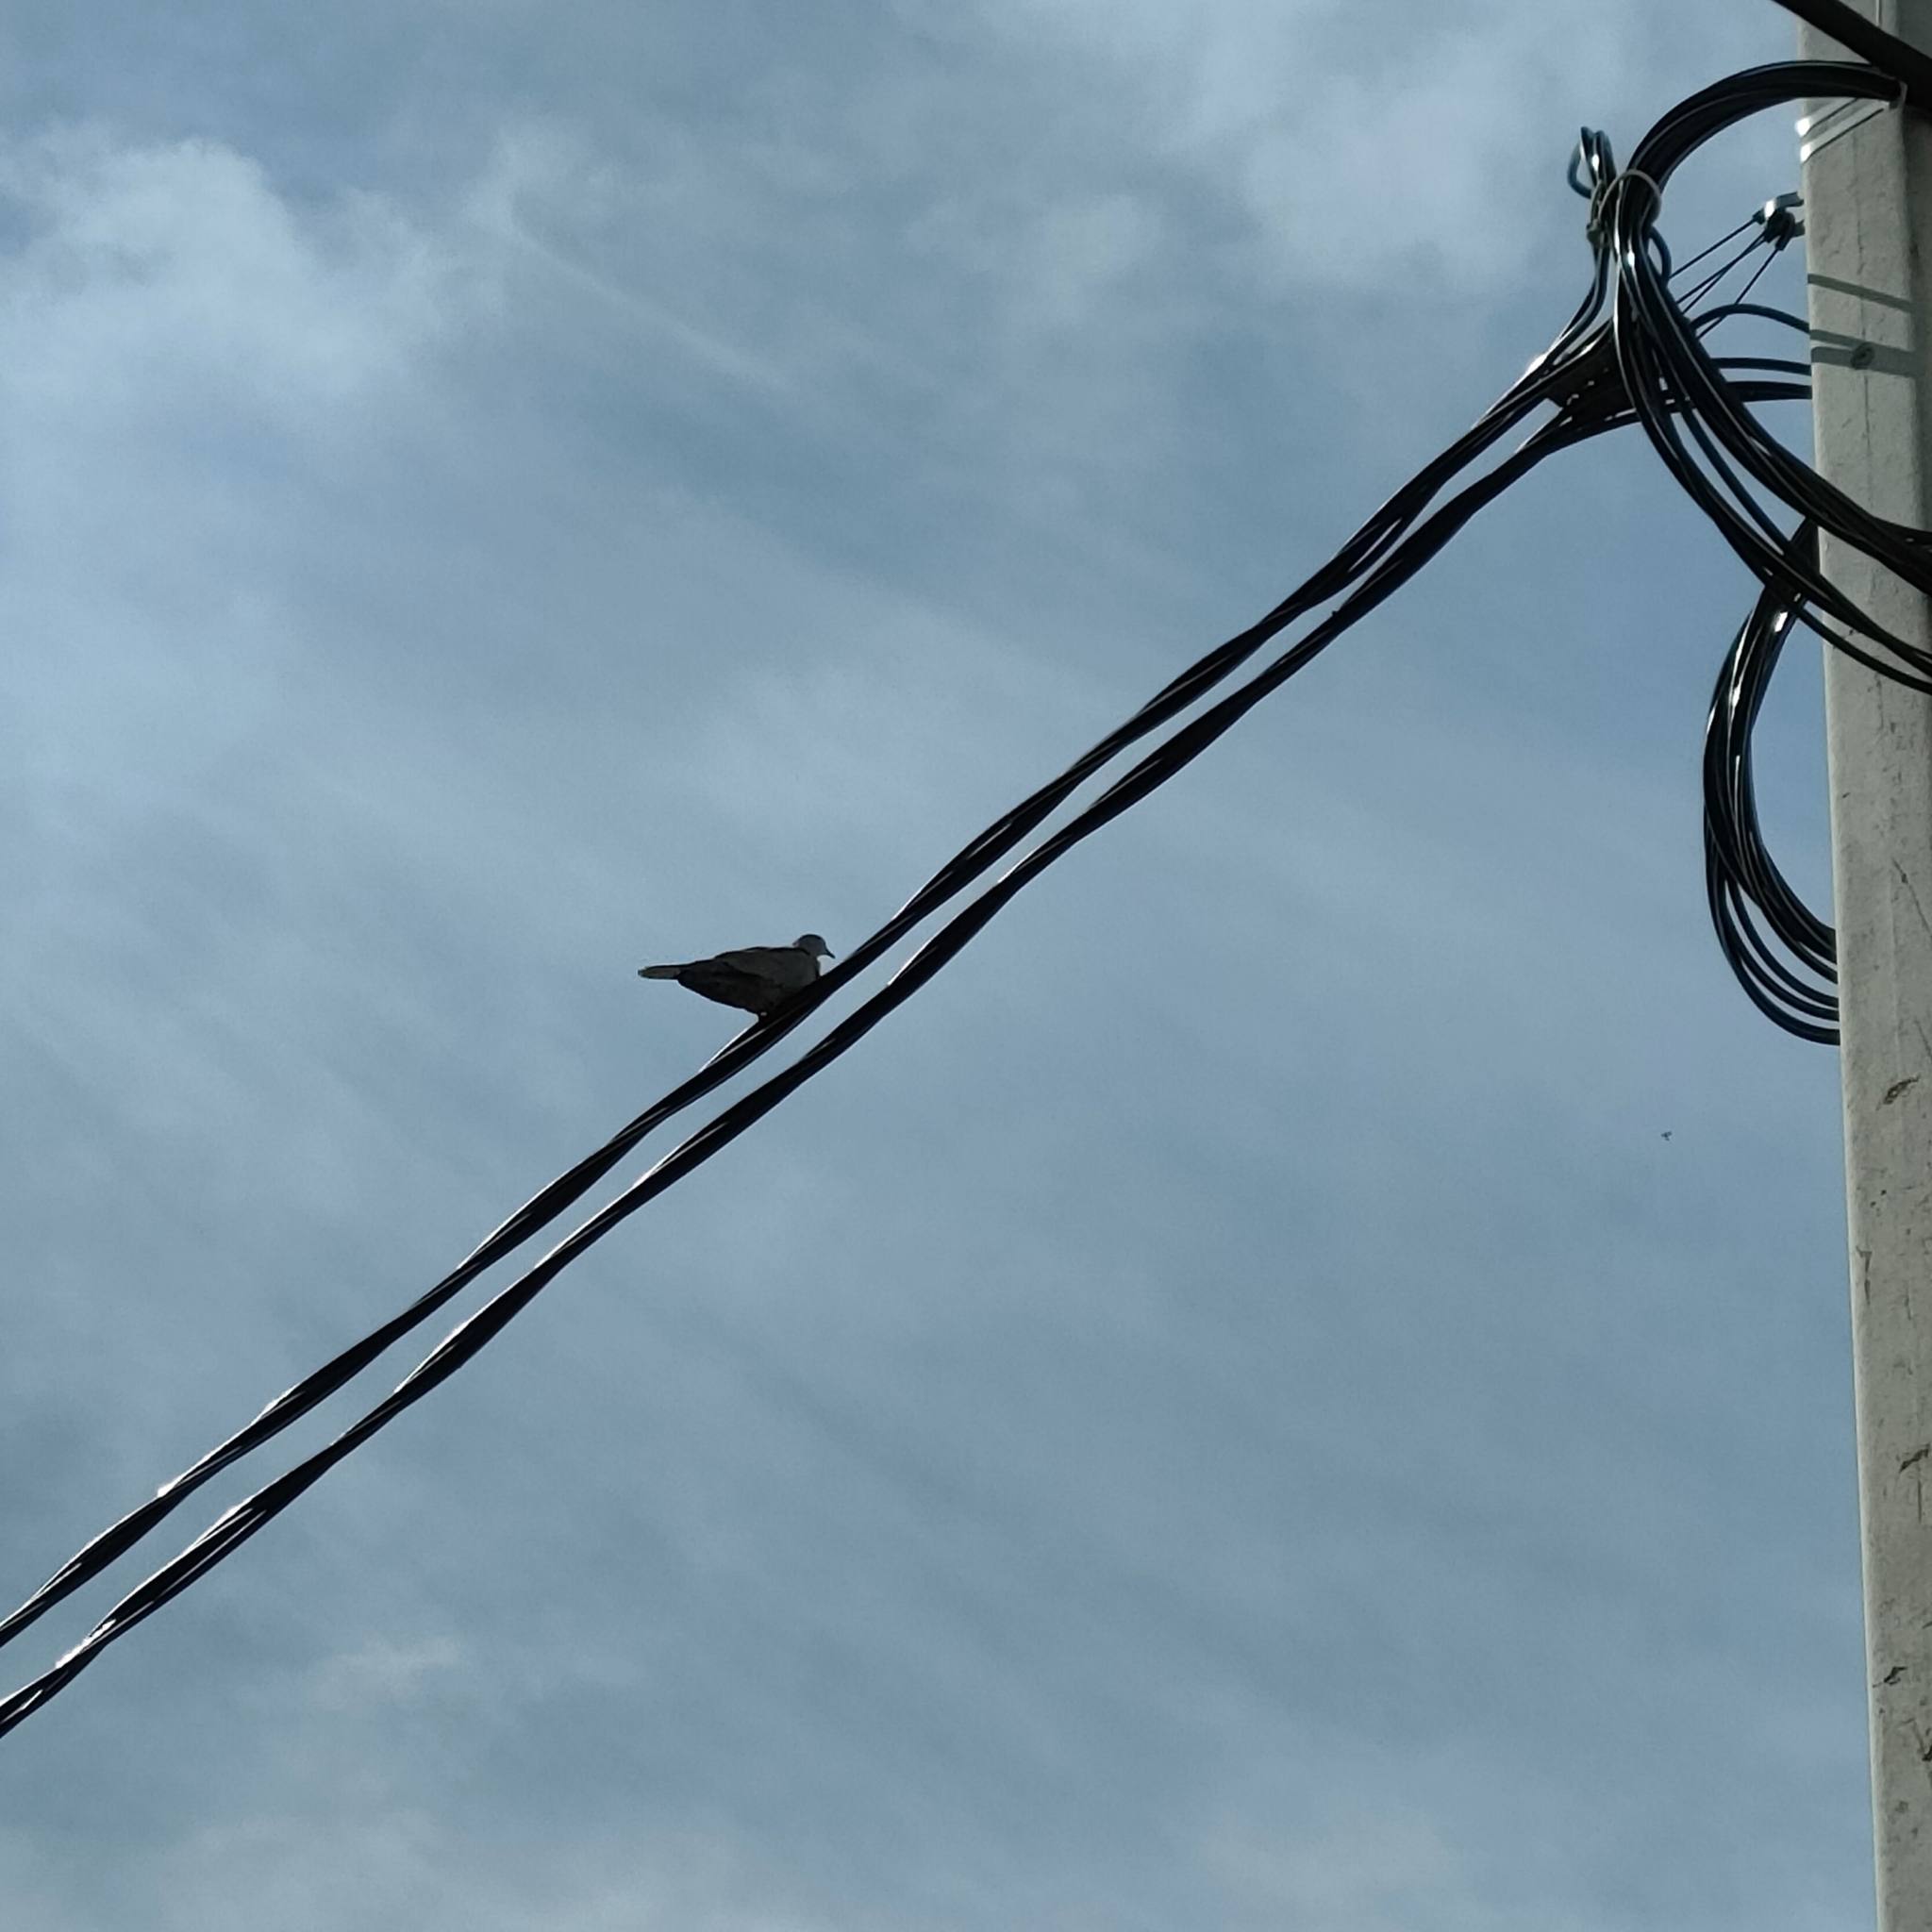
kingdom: Animalia
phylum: Chordata
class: Aves
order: Columbiformes
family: Columbidae
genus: Streptopelia
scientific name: Streptopelia decaocto
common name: Eurasian collared dove
